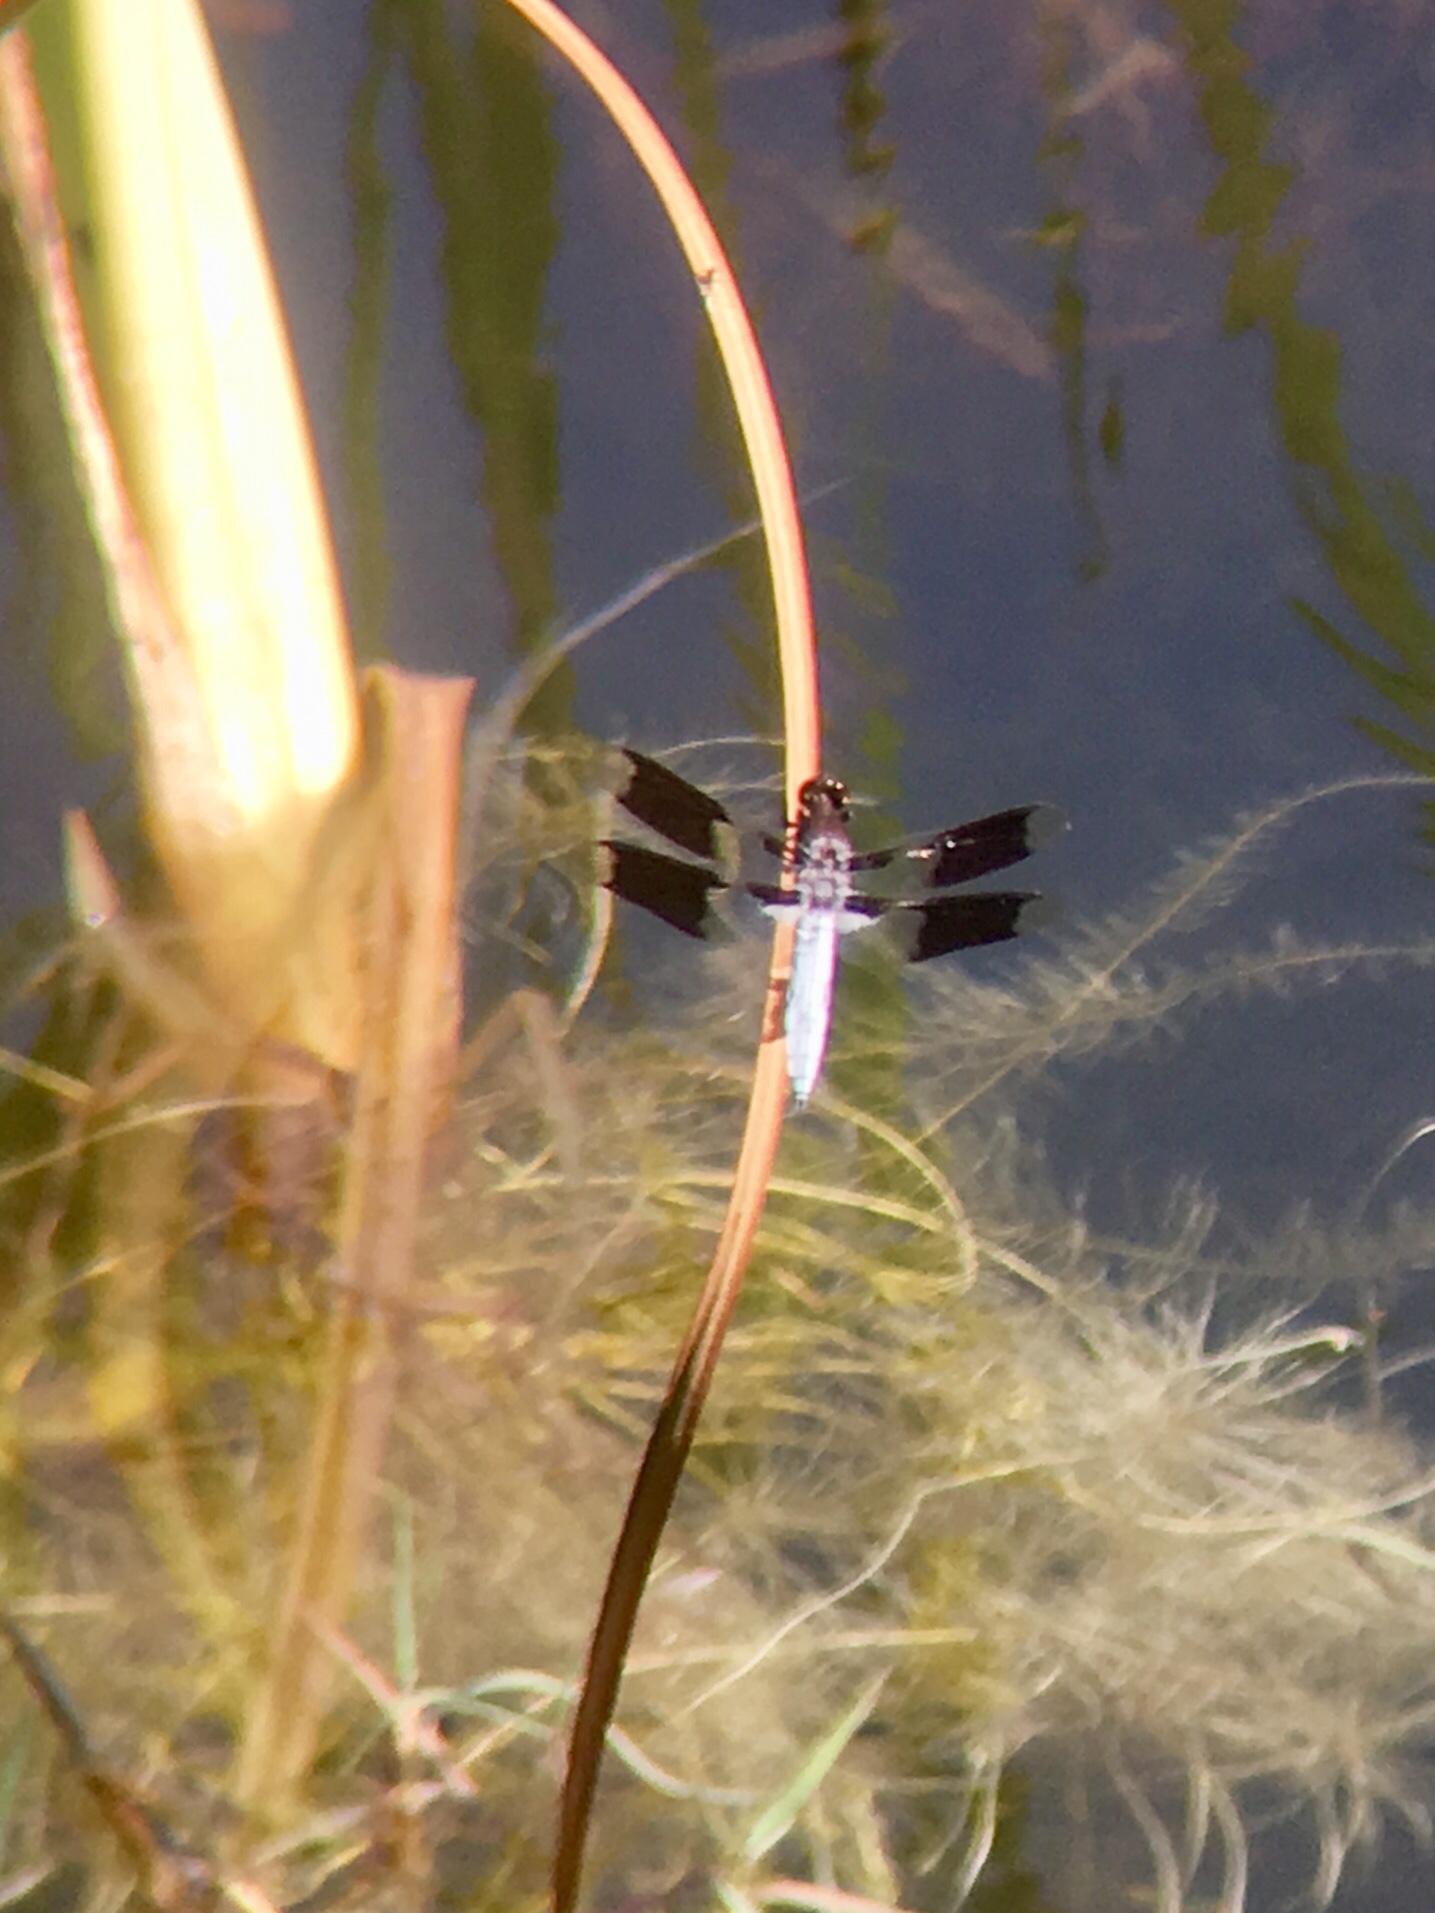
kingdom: Animalia
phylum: Arthropoda
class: Insecta
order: Odonata
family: Libellulidae
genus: Plathemis
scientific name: Plathemis lydia
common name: Common whitetail
